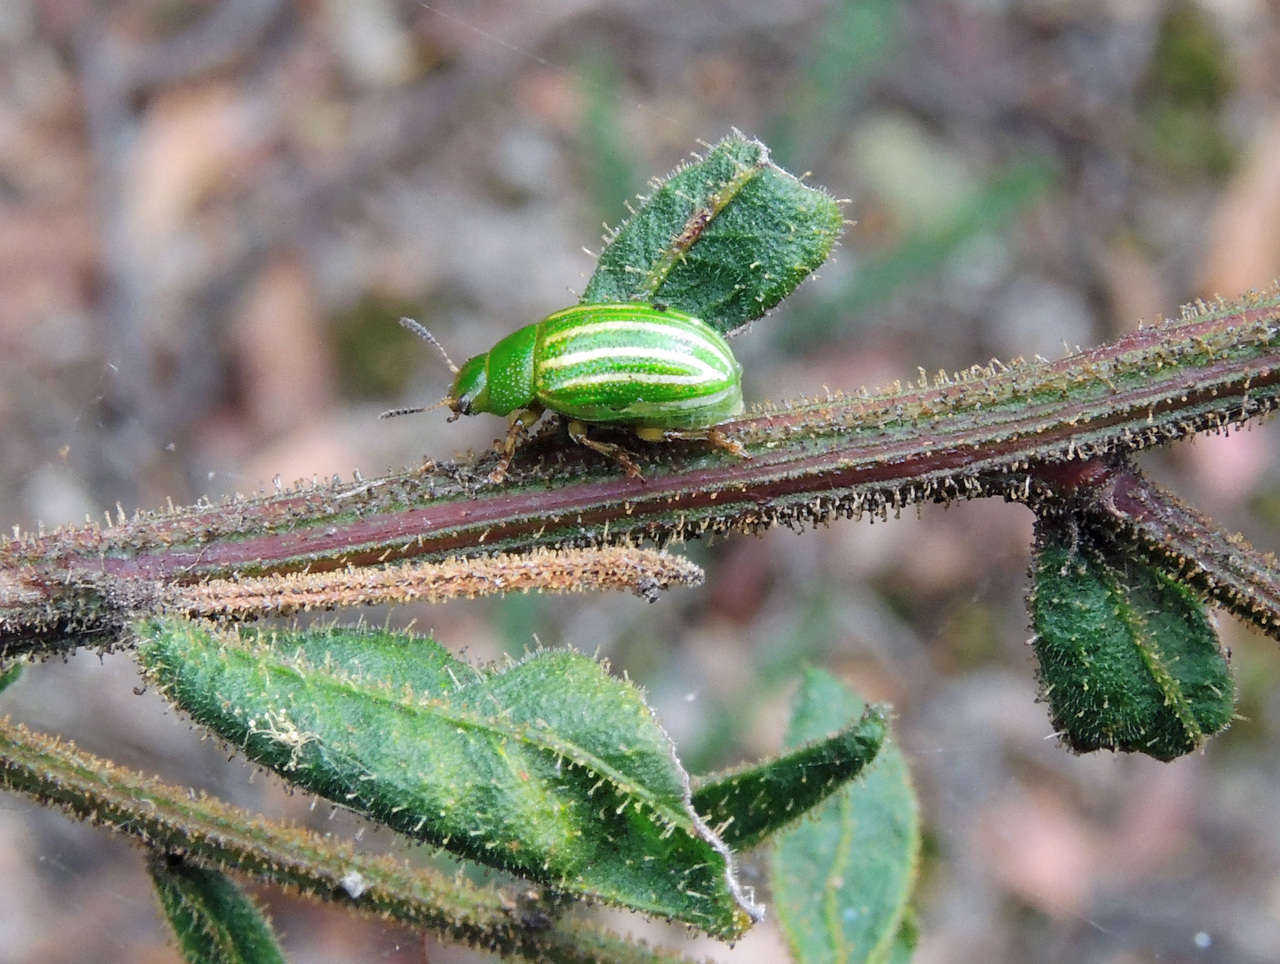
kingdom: Plantae
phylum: Tracheophyta
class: Magnoliopsida
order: Fabales
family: Fabaceae
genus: Acacia
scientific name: Acacia aspera
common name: Rough wattle
